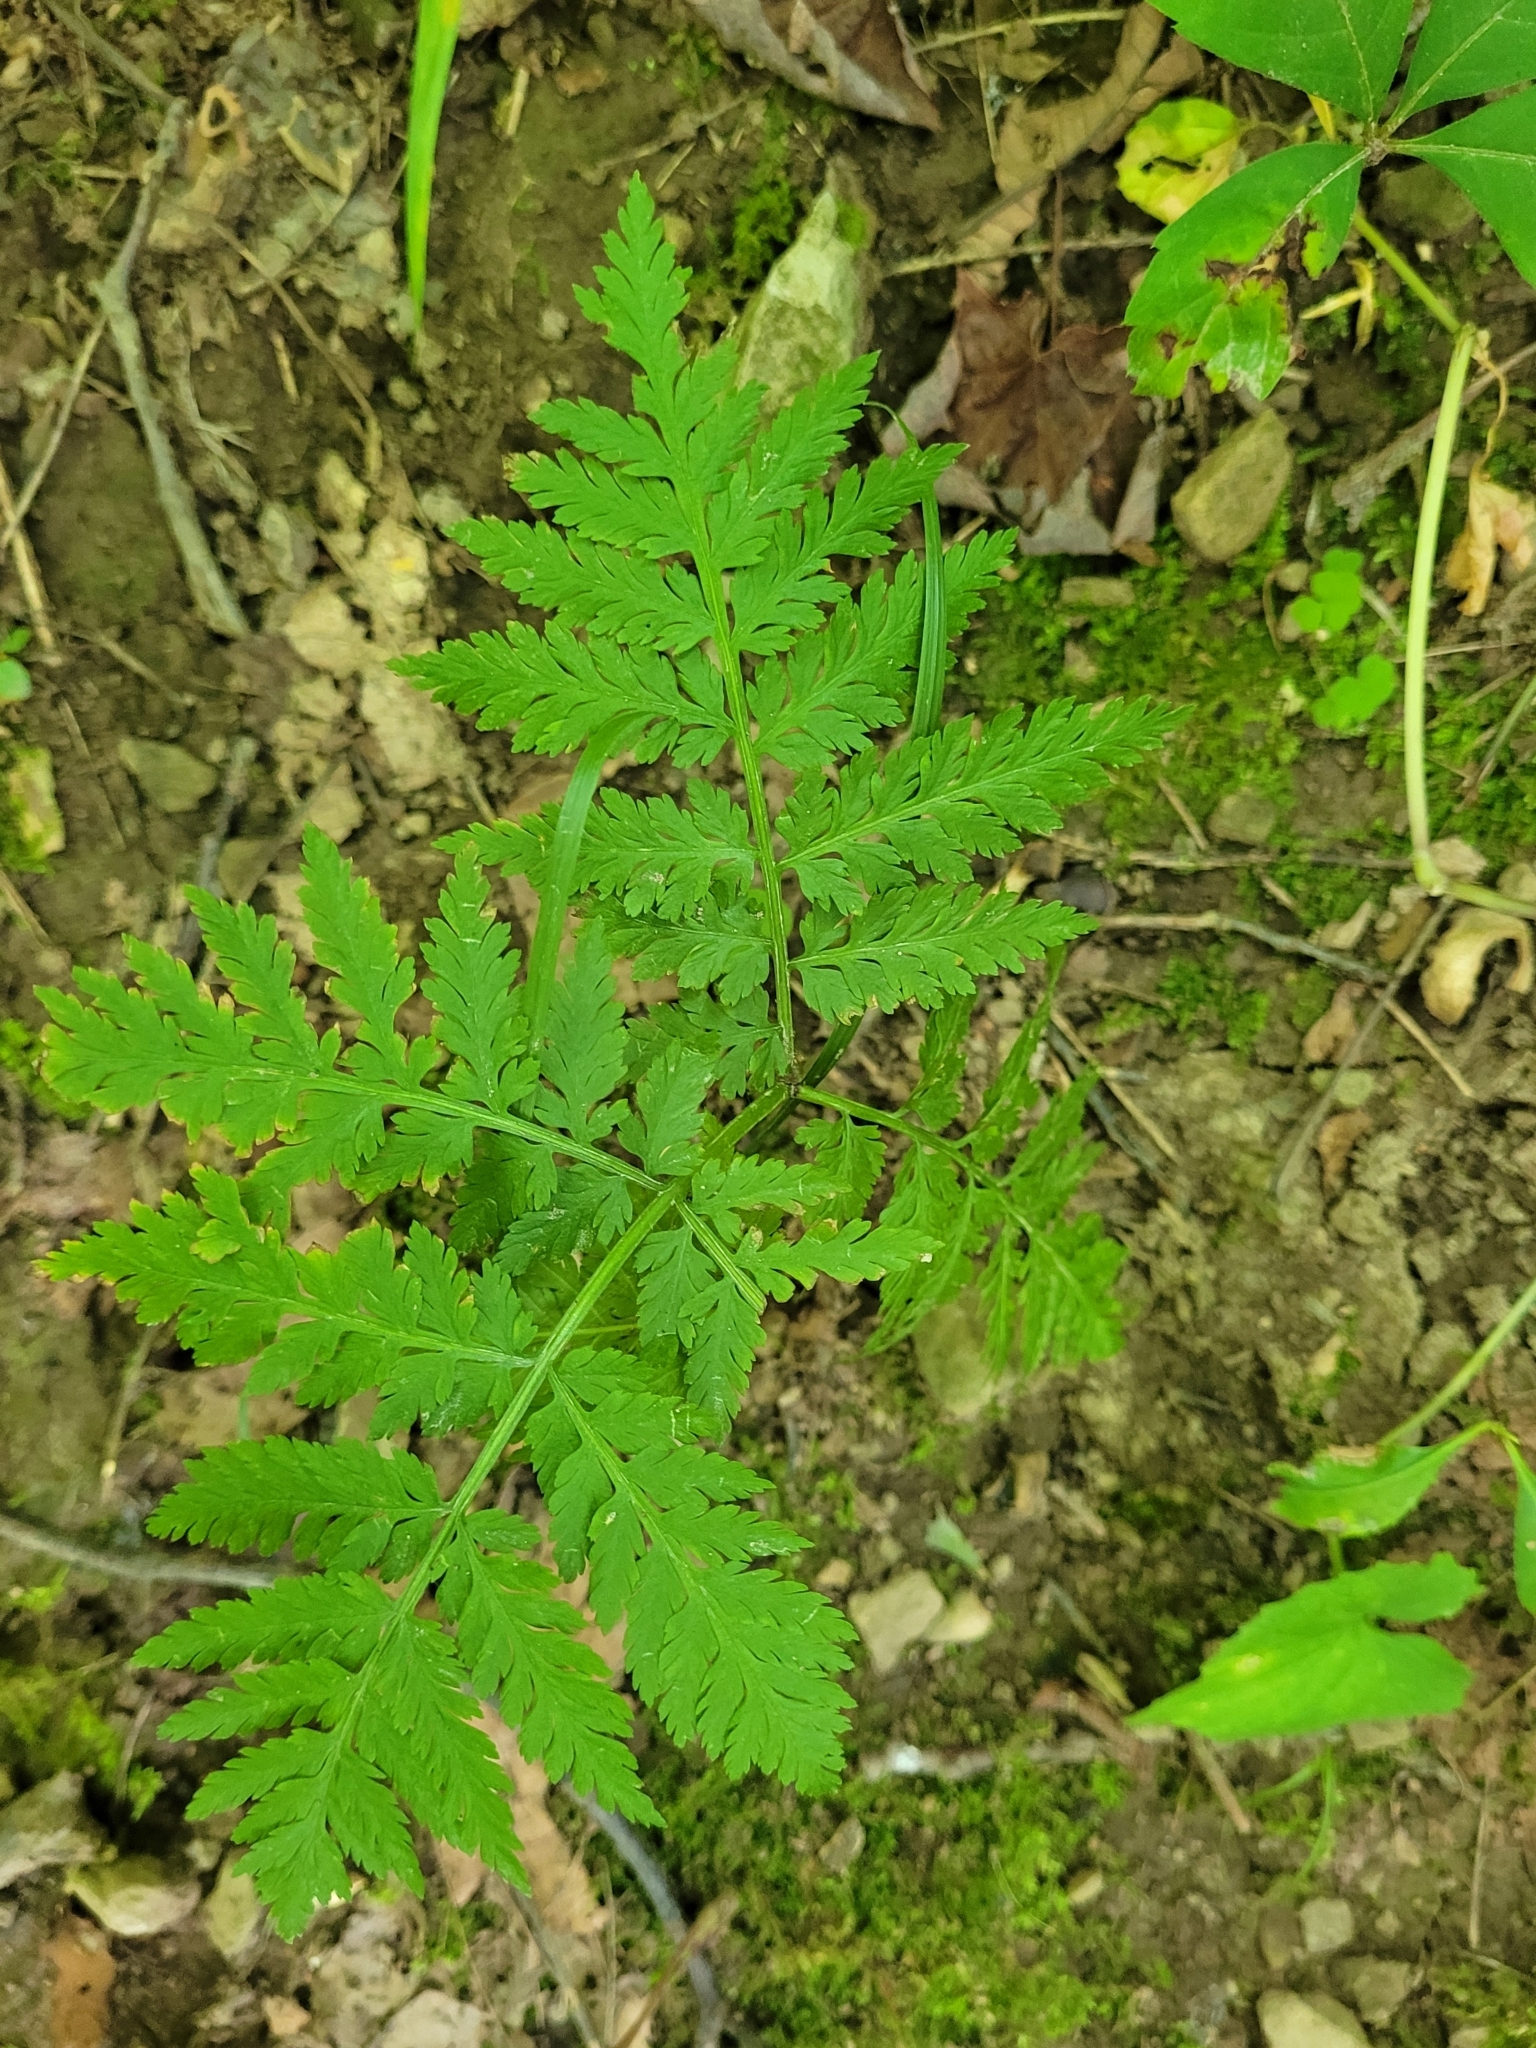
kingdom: Plantae
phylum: Tracheophyta
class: Polypodiopsida
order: Ophioglossales
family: Ophioglossaceae
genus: Botrypus
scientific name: Botrypus virginianus
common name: Common grapefern
